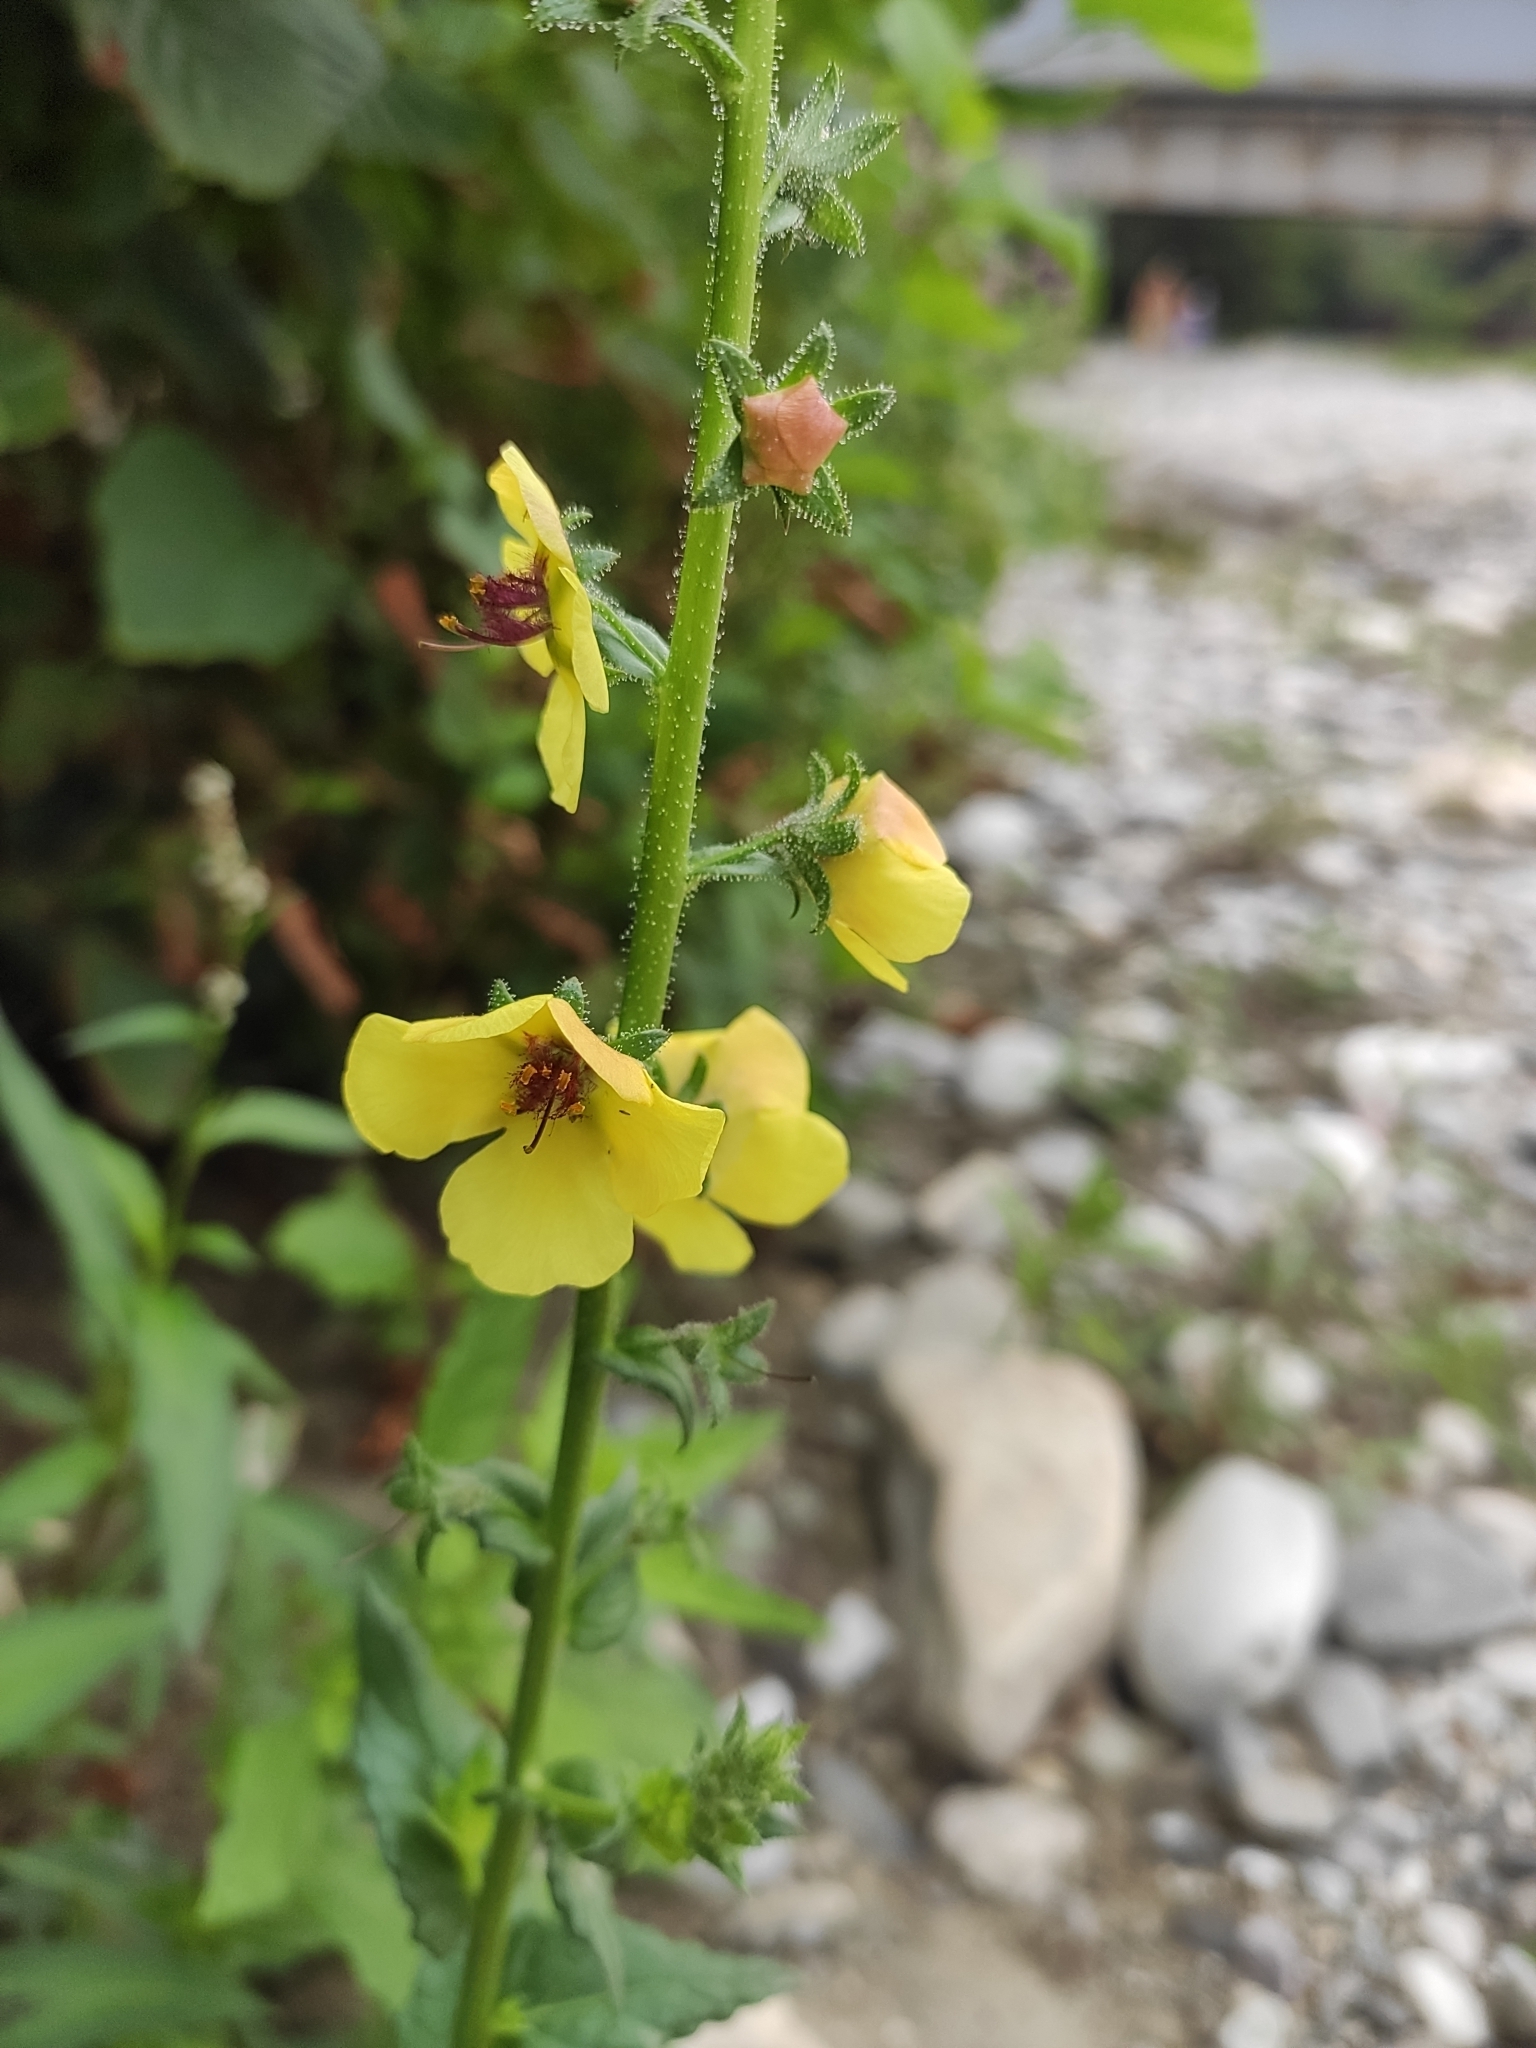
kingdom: Plantae
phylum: Tracheophyta
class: Magnoliopsida
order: Lamiales
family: Scrophulariaceae
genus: Verbascum
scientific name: Verbascum blattaria
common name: Moth mullein
